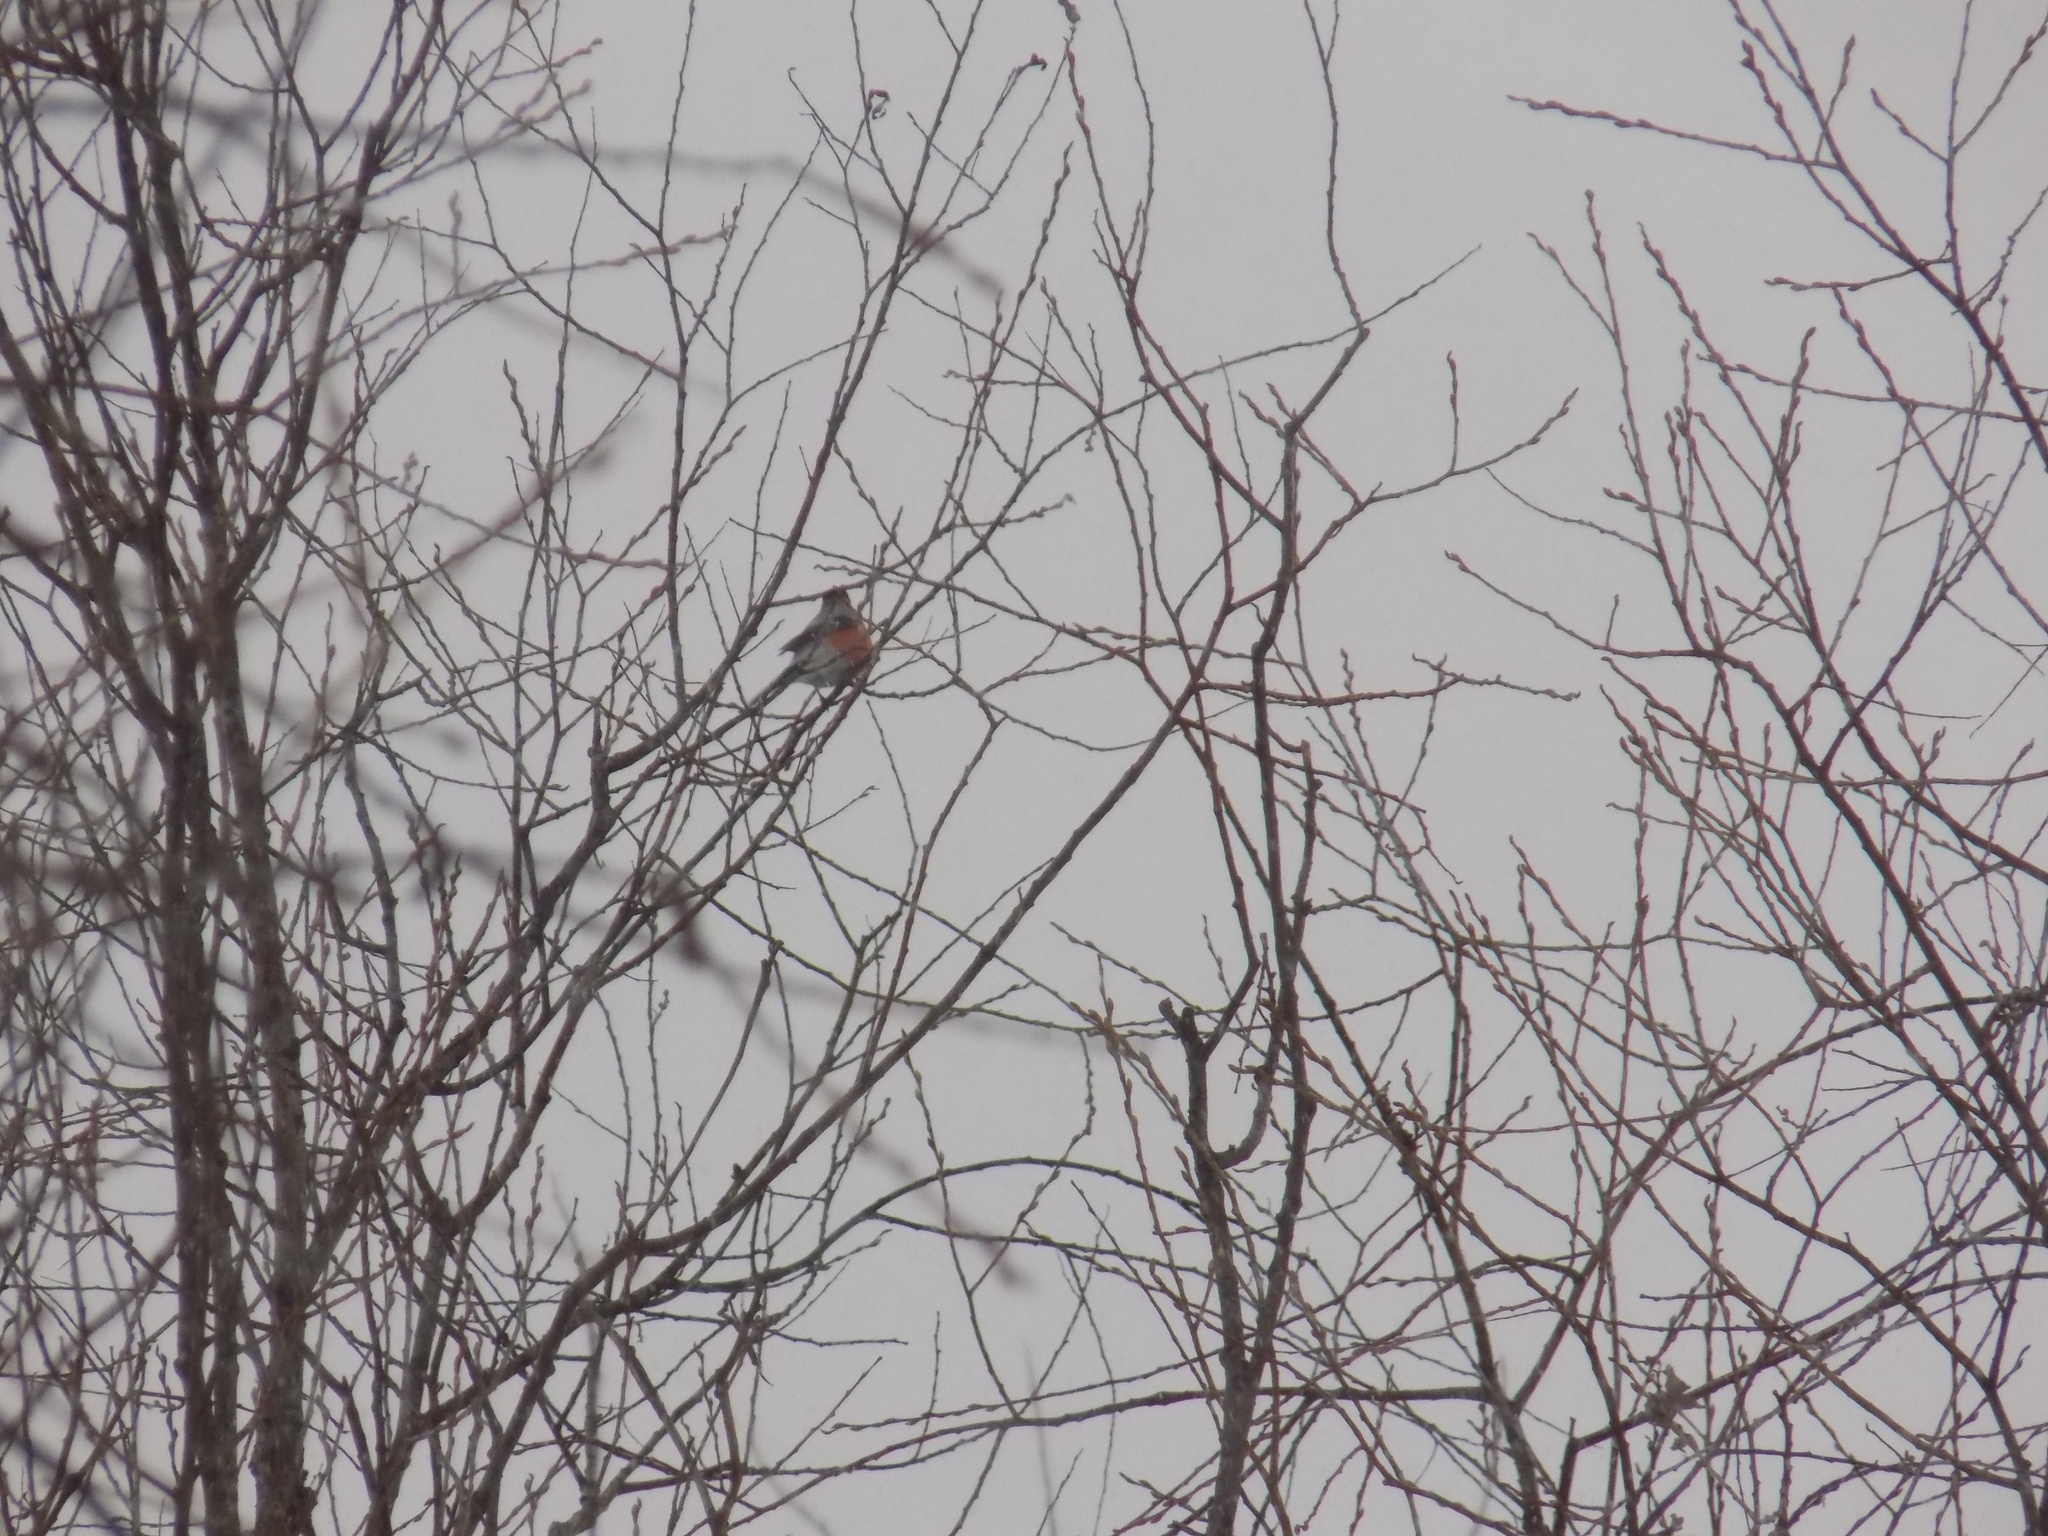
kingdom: Animalia
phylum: Chordata
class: Aves
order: Passeriformes
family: Fringillidae
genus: Pyrrhula
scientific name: Pyrrhula pyrrhula
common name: Eurasian bullfinch
